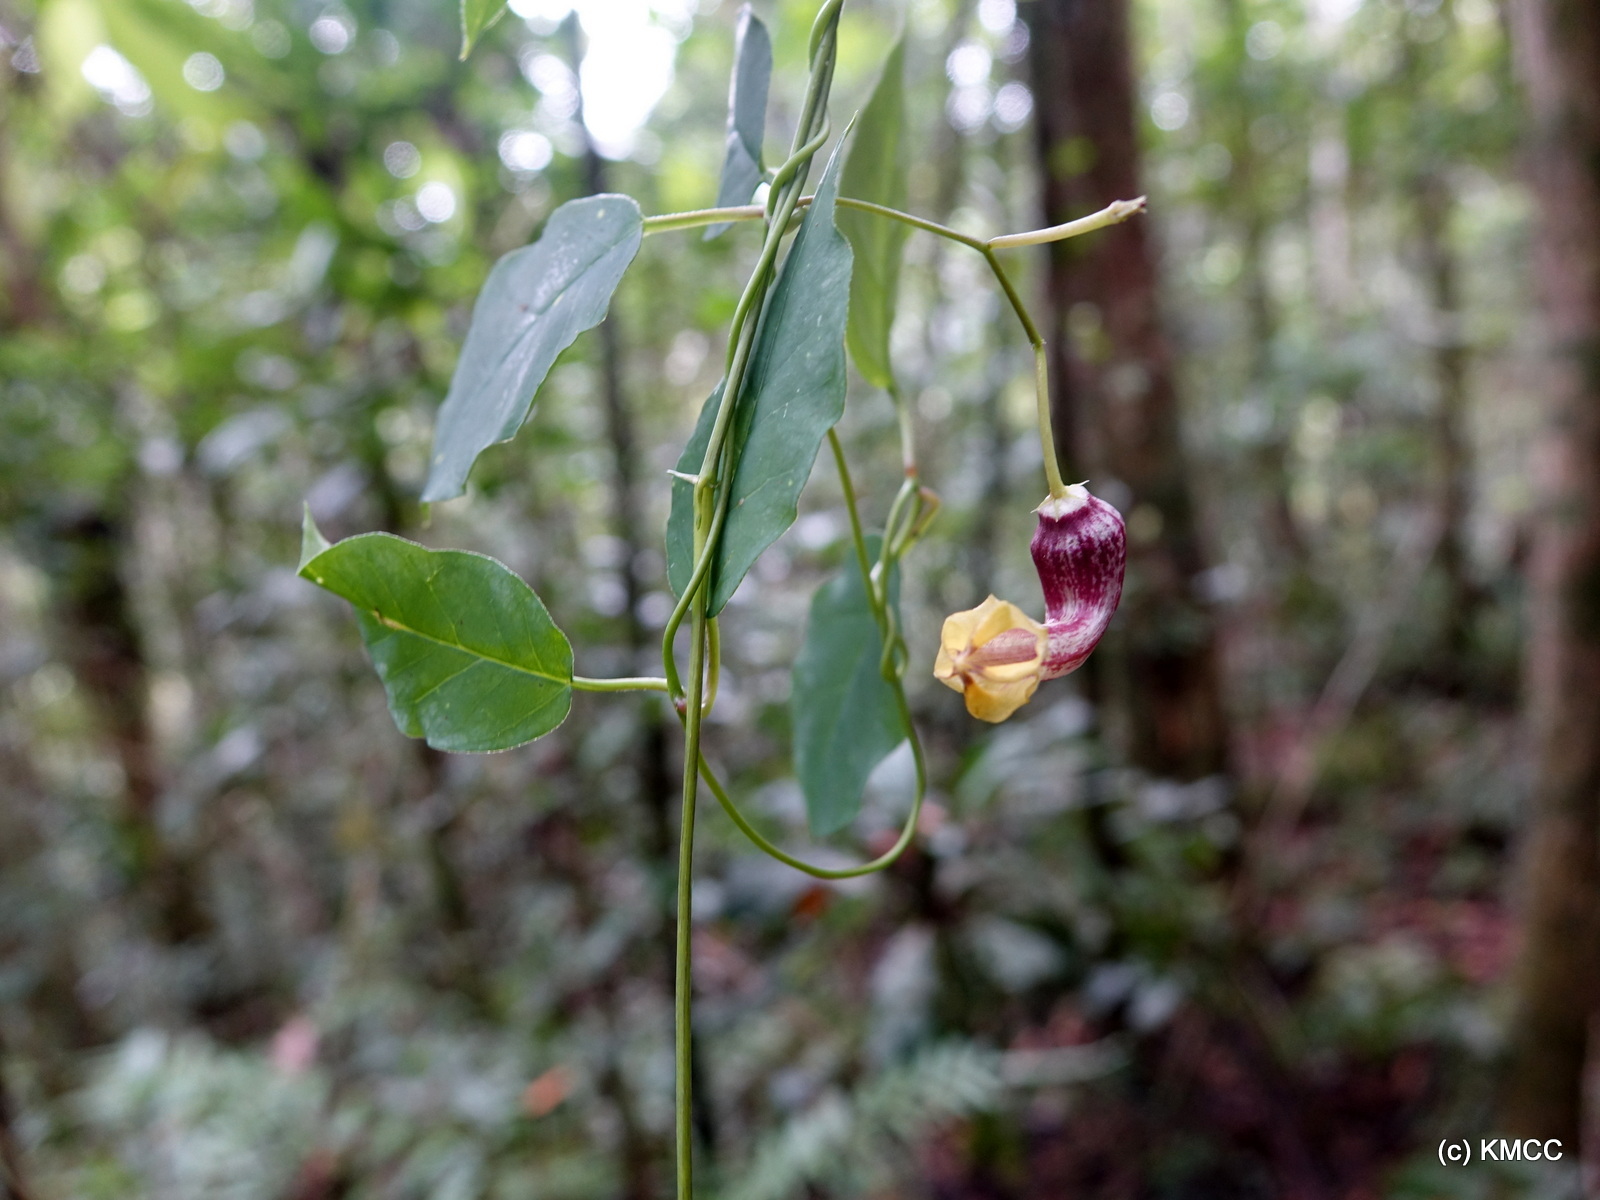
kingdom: Plantae
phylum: Tracheophyta
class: Magnoliopsida
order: Gentianales
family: Apocynaceae
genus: Ceropegia
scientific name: Ceropegia racemosa
